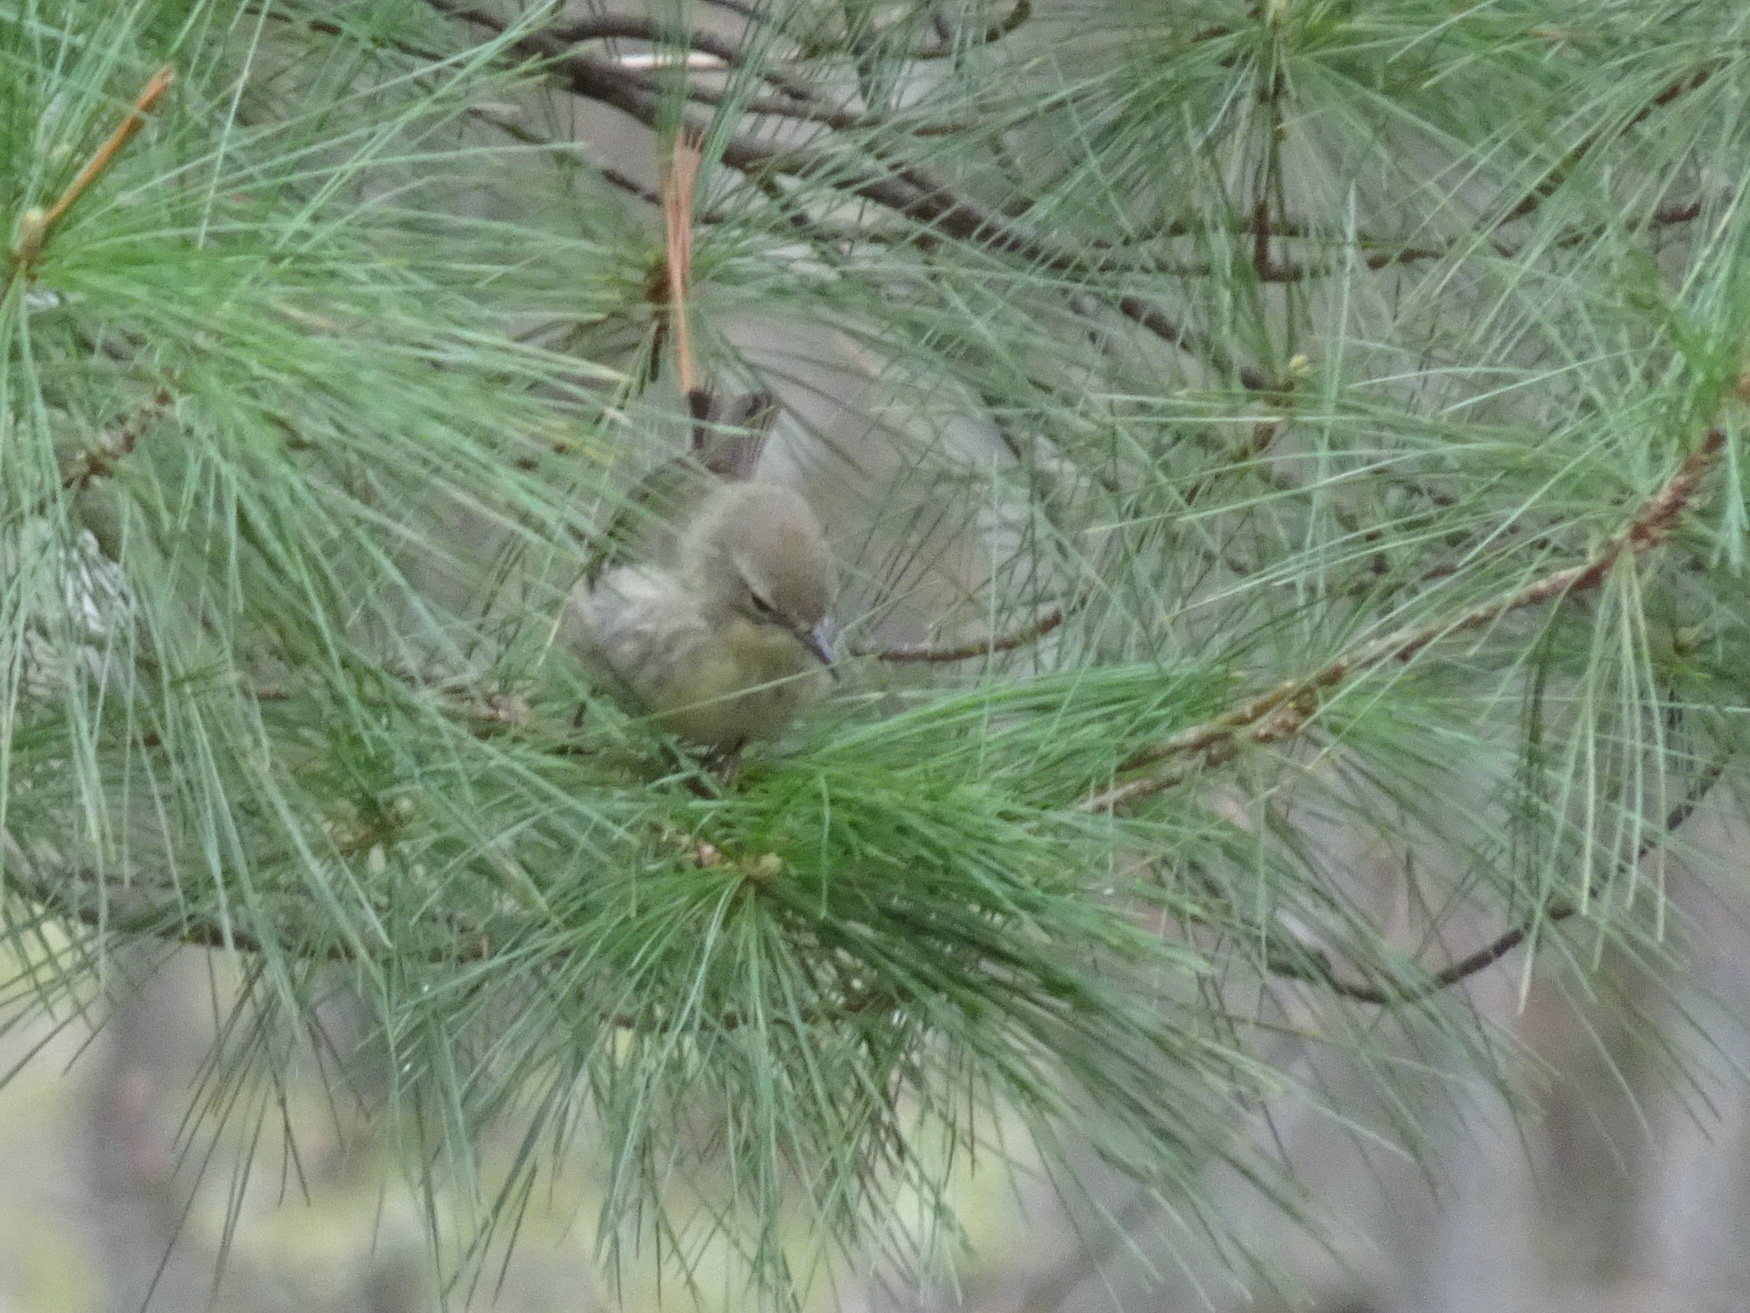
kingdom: Animalia
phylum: Chordata
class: Aves
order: Passeriformes
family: Parulidae
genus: Setophaga
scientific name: Setophaga pinus
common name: Pine warbler
